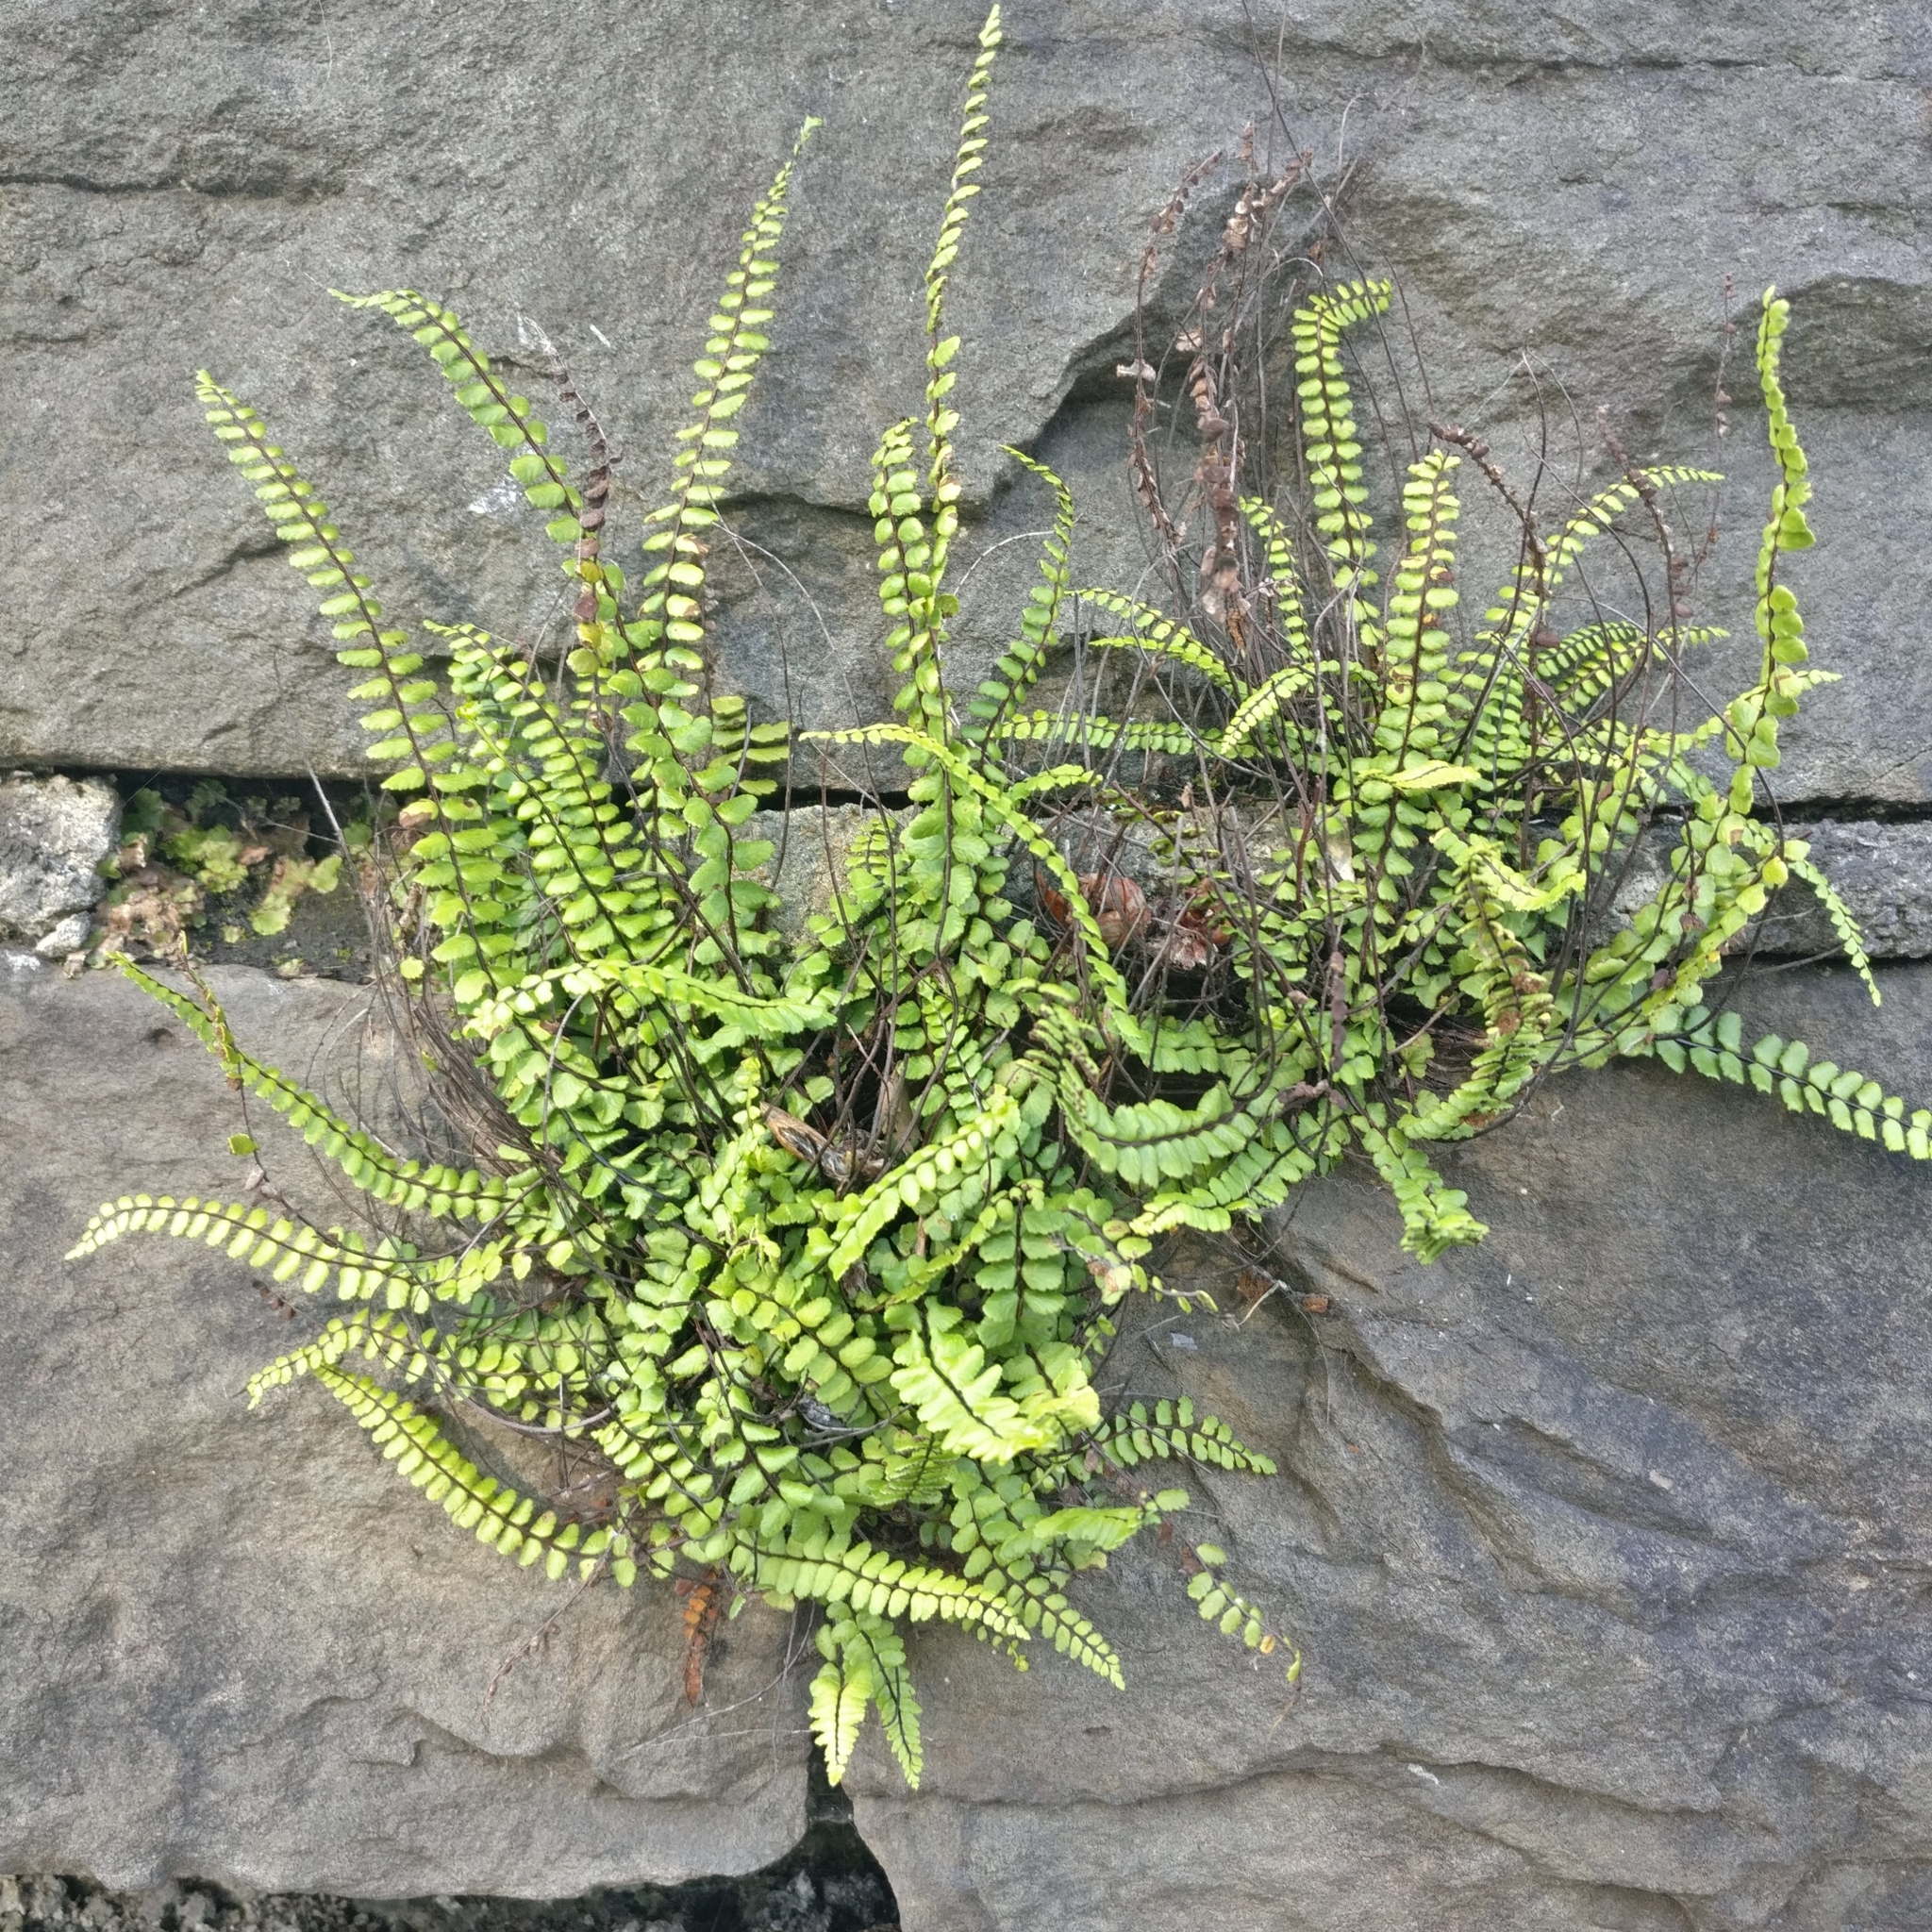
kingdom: Plantae
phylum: Tracheophyta
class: Polypodiopsida
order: Polypodiales
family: Aspleniaceae
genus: Asplenium
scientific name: Asplenium trichomanes
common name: Maidenhair spleenwort
